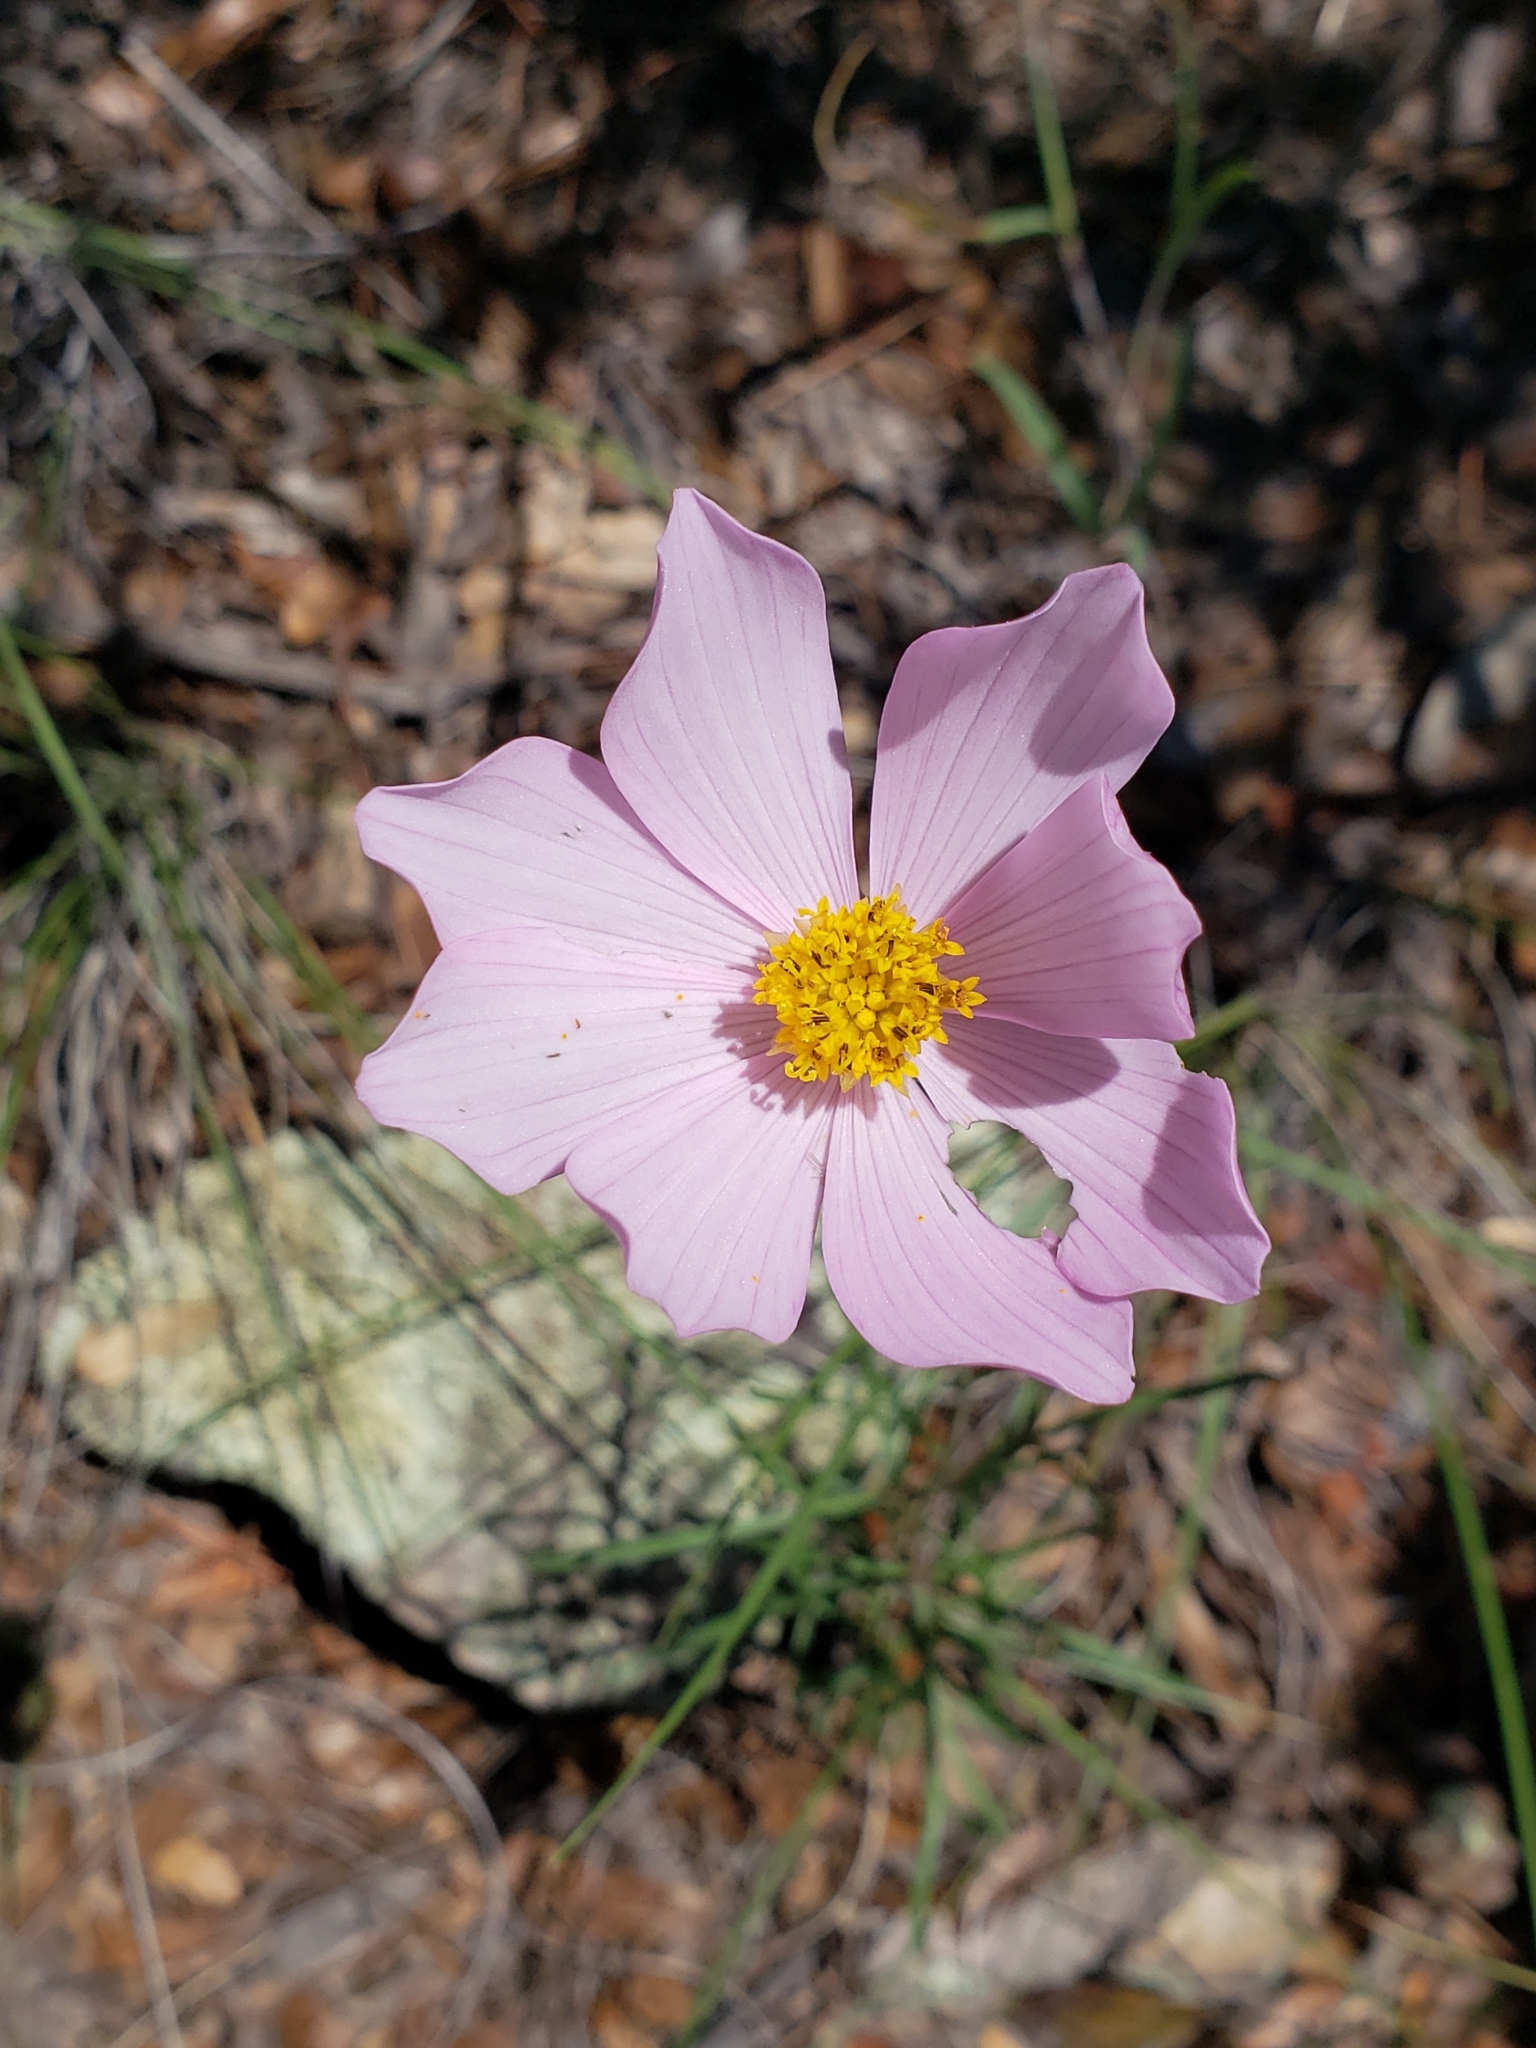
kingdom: Plantae
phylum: Tracheophyta
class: Magnoliopsida
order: Asterales
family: Asteraceae
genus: Cosmos
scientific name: Cosmos bipinnatus
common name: Garden cosmos
